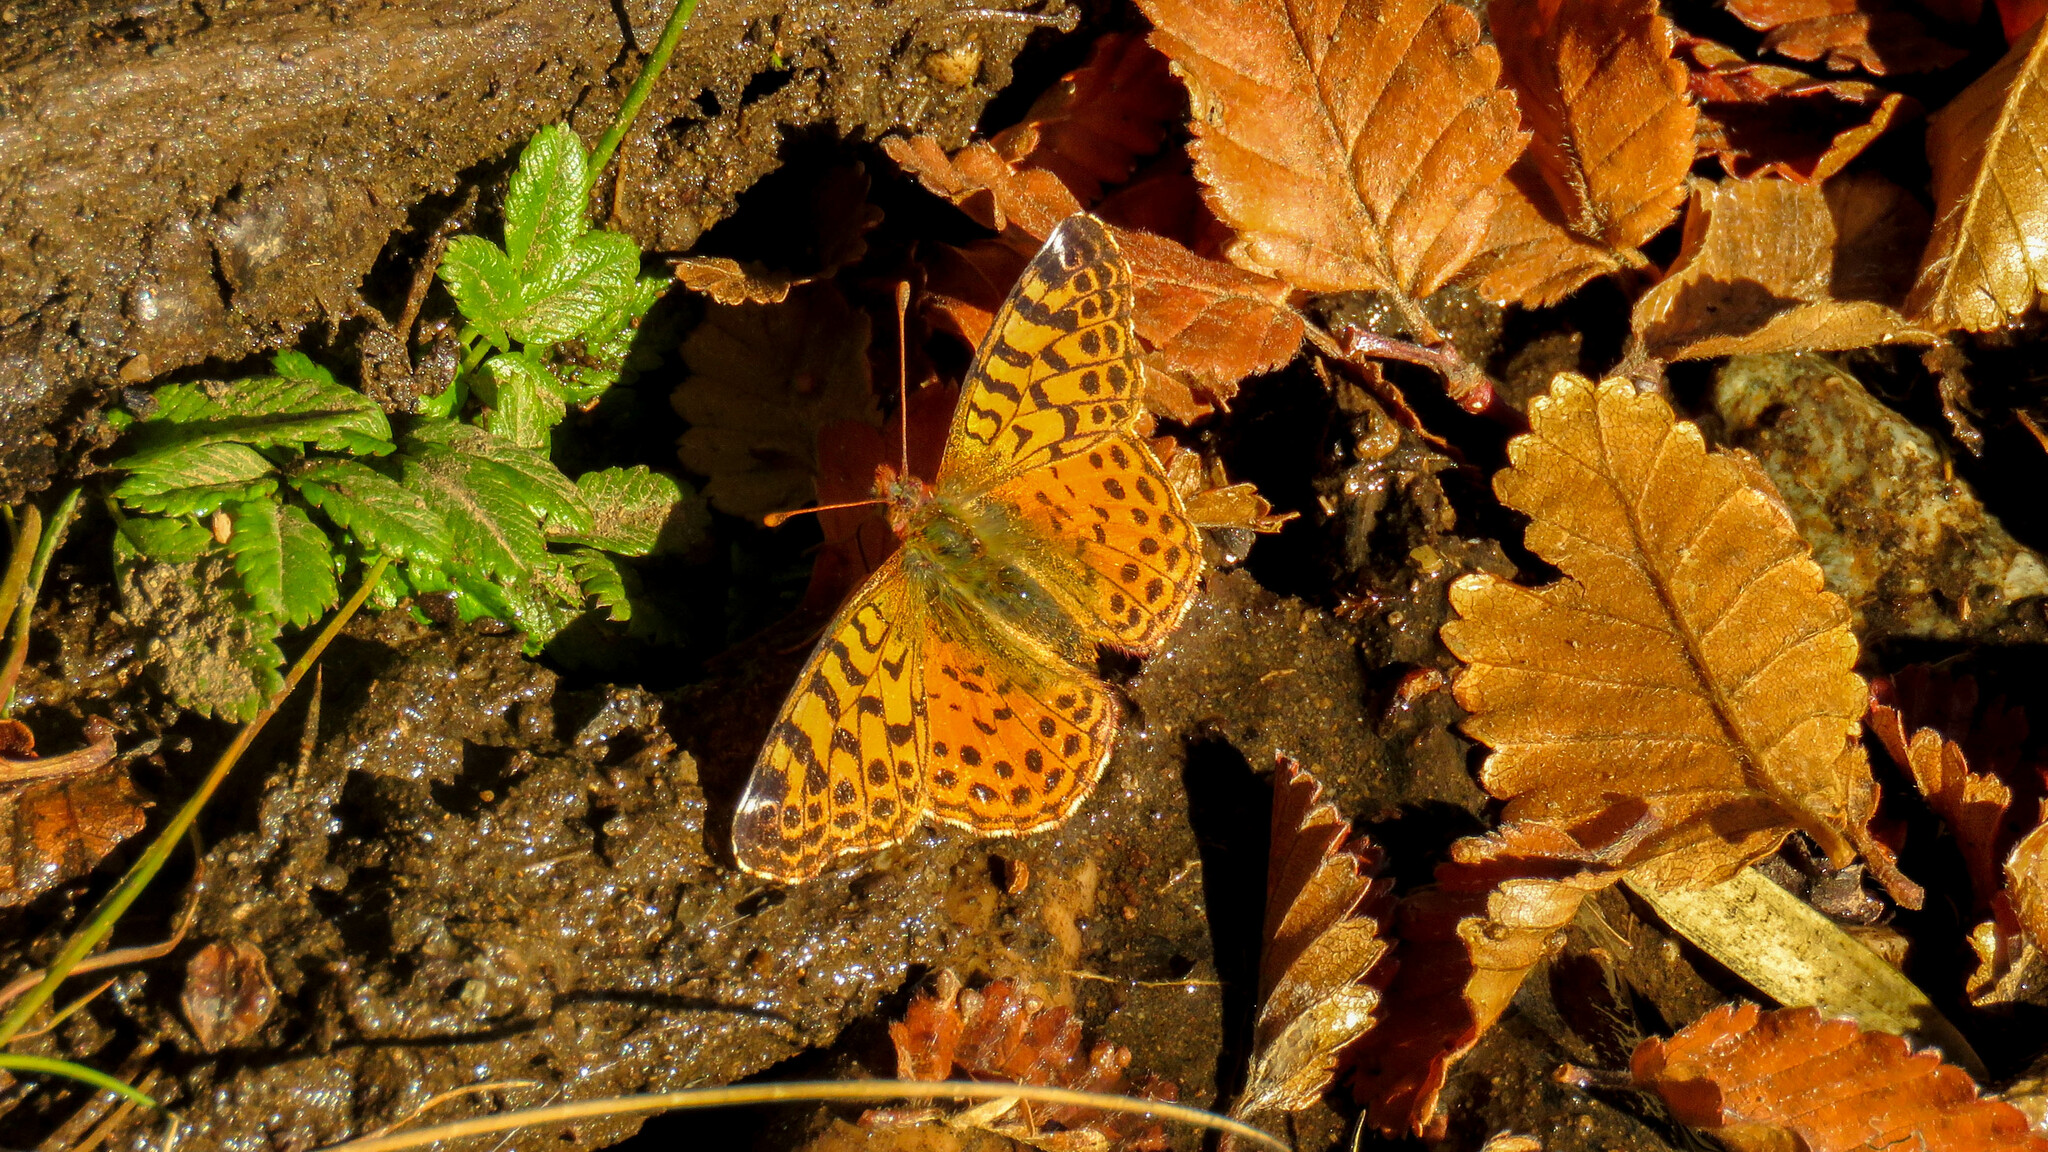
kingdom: Animalia
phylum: Arthropoda
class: Insecta
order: Lepidoptera
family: Nymphalidae
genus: Issoria
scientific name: Issoria Yramea cytheris
